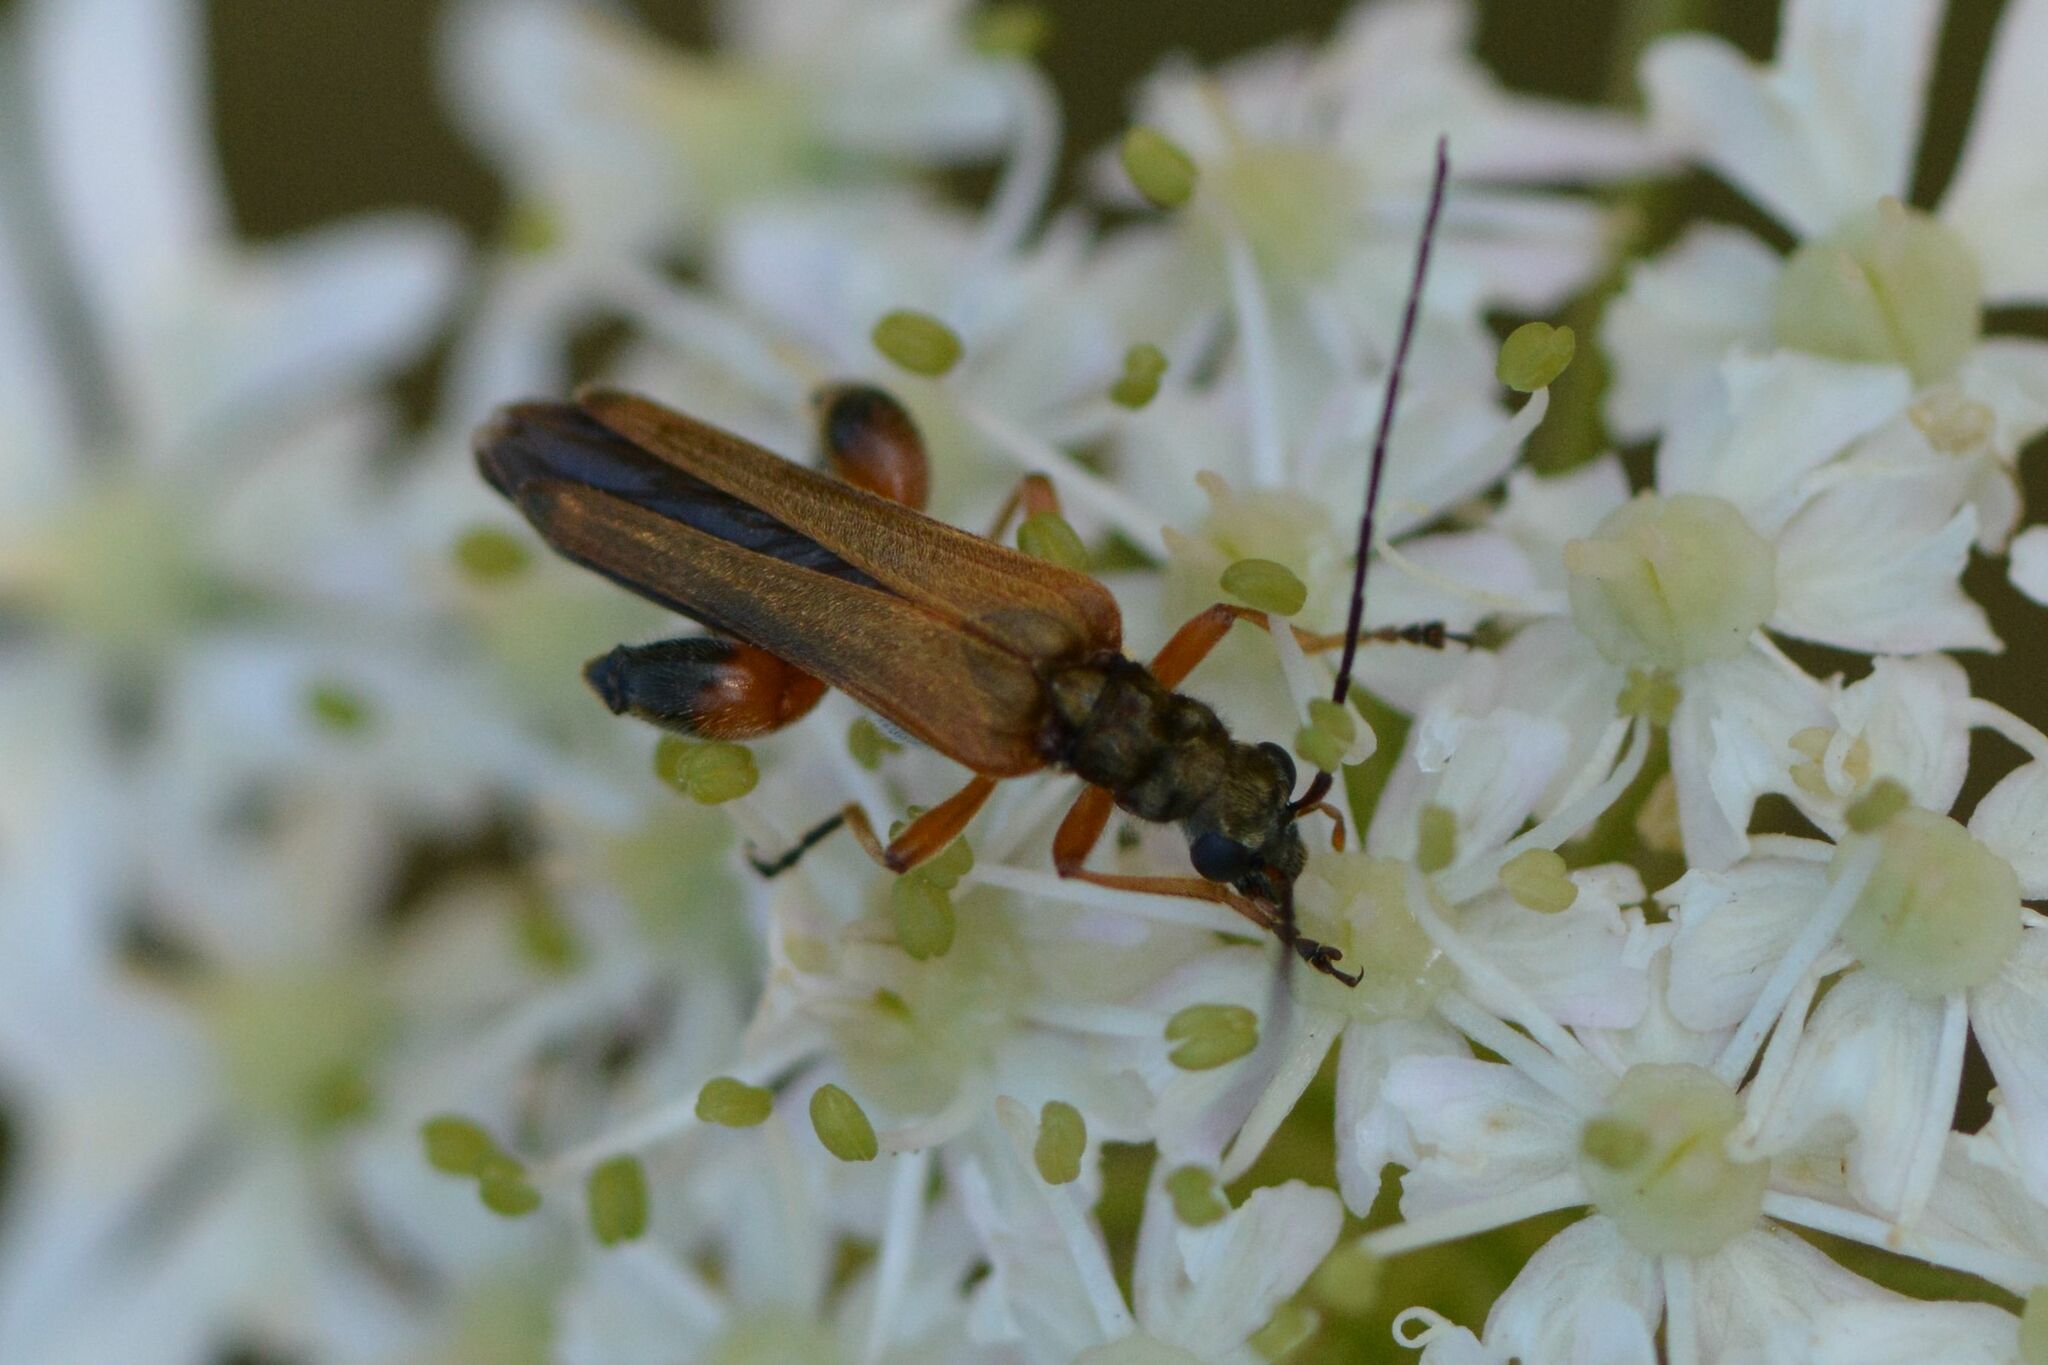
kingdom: Animalia
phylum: Arthropoda
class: Insecta
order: Coleoptera
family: Oedemeridae
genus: Oedemera
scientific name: Oedemera podagrariae
